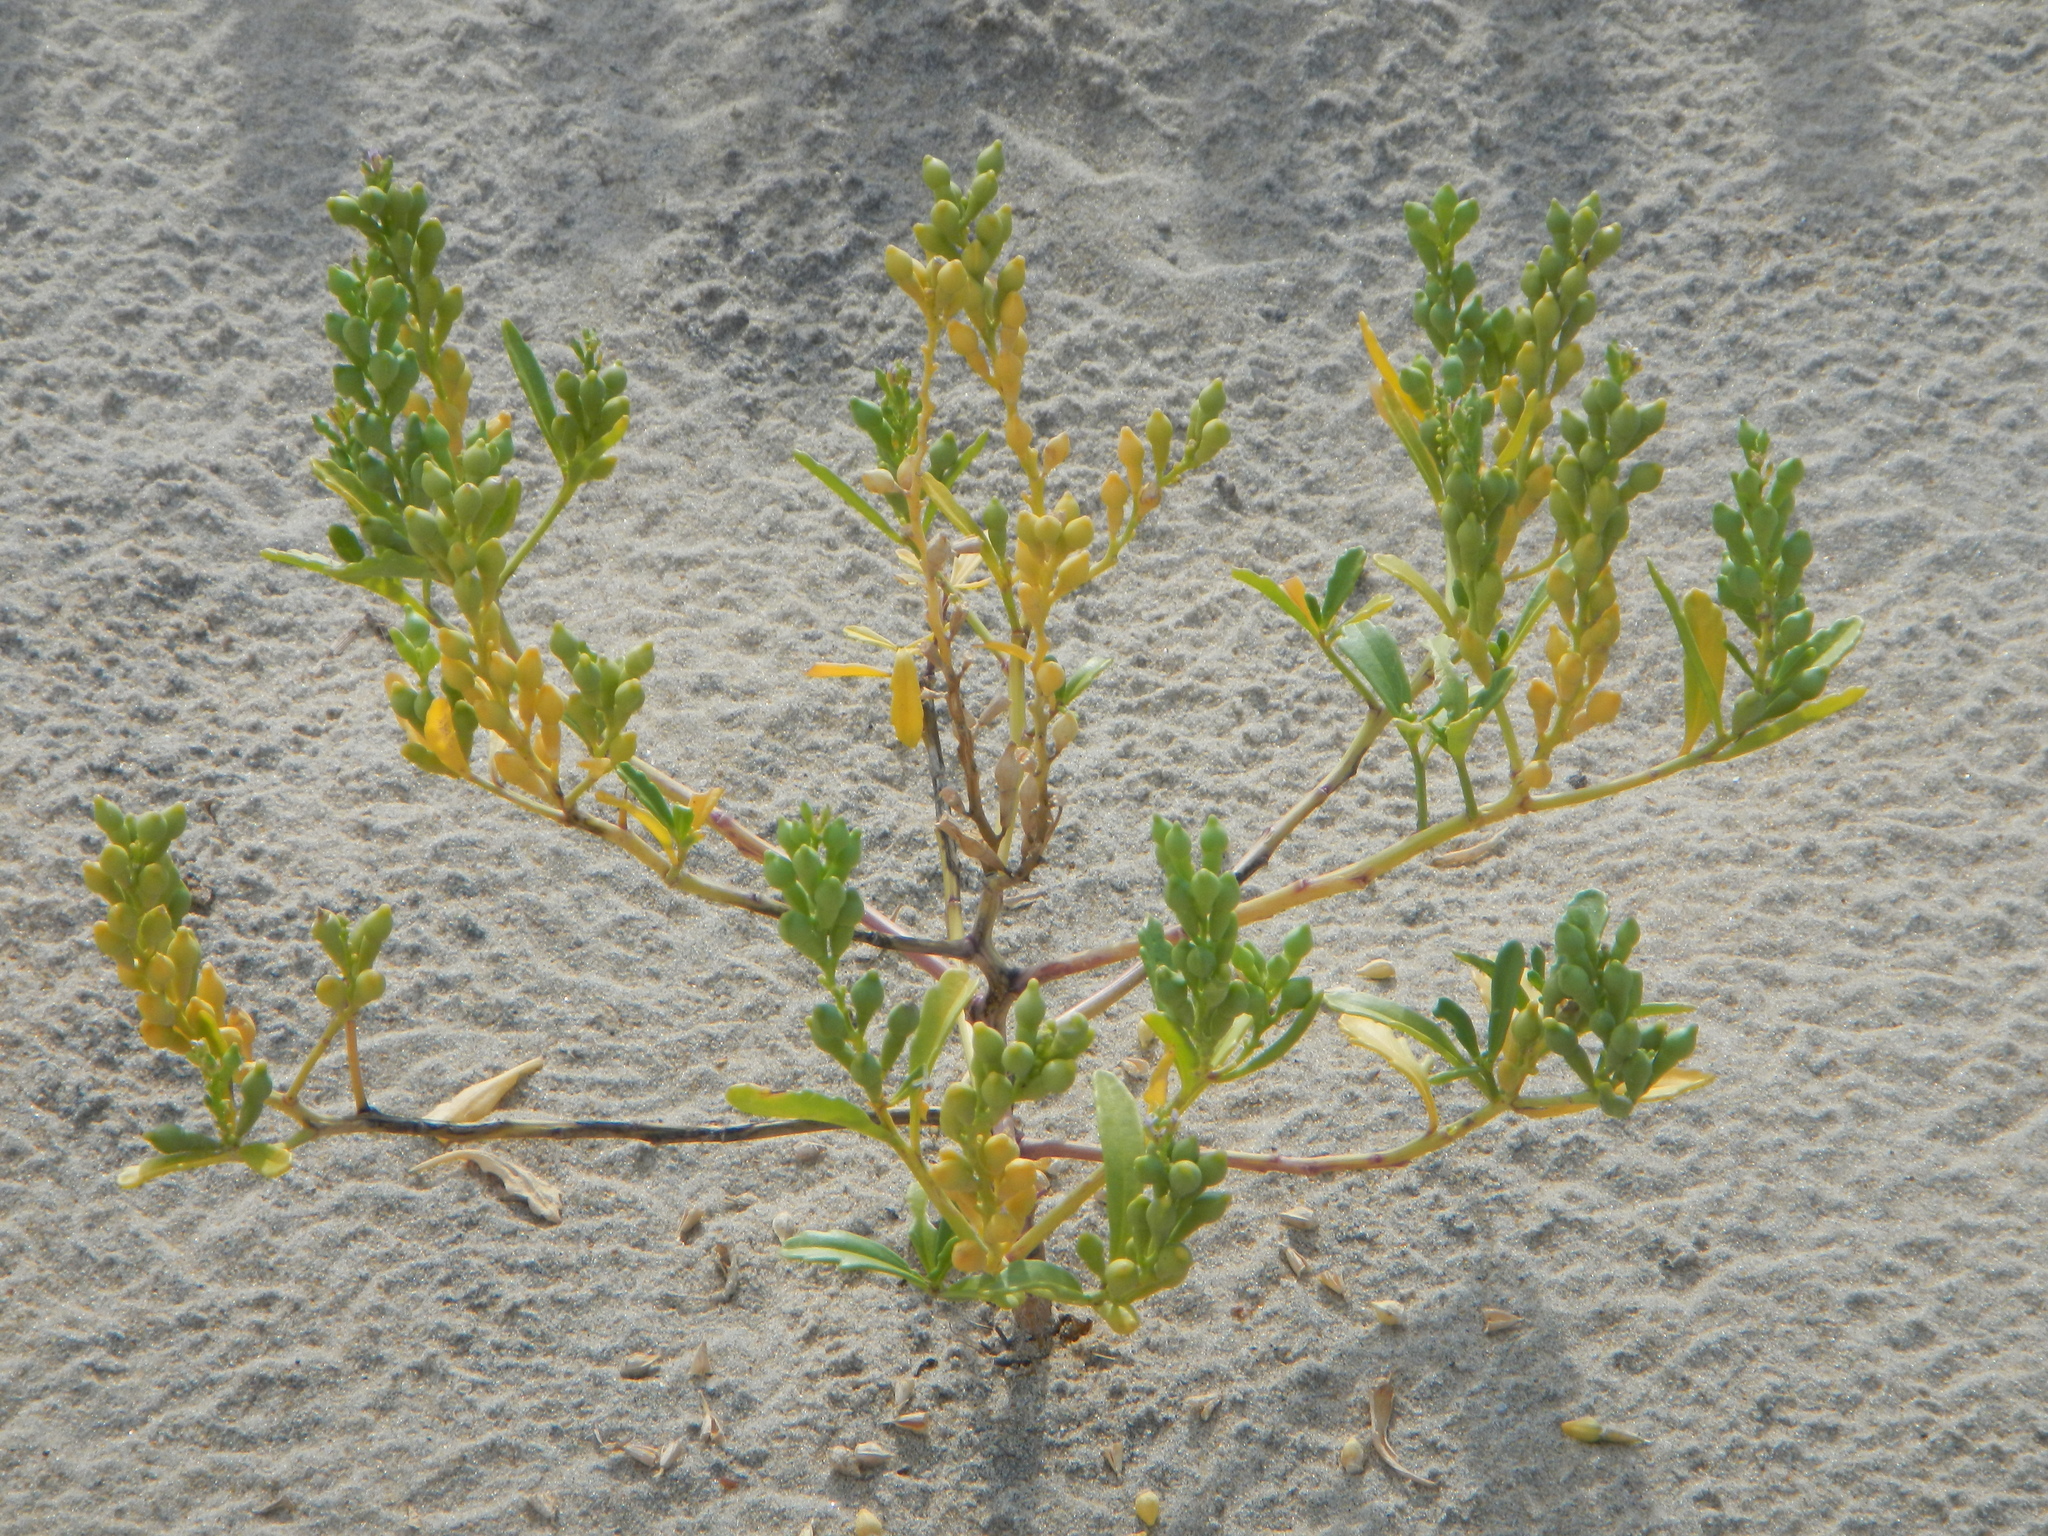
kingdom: Plantae
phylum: Tracheophyta
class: Magnoliopsida
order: Brassicales
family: Brassicaceae
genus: Cakile
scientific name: Cakile edentula
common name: American sea rocket
